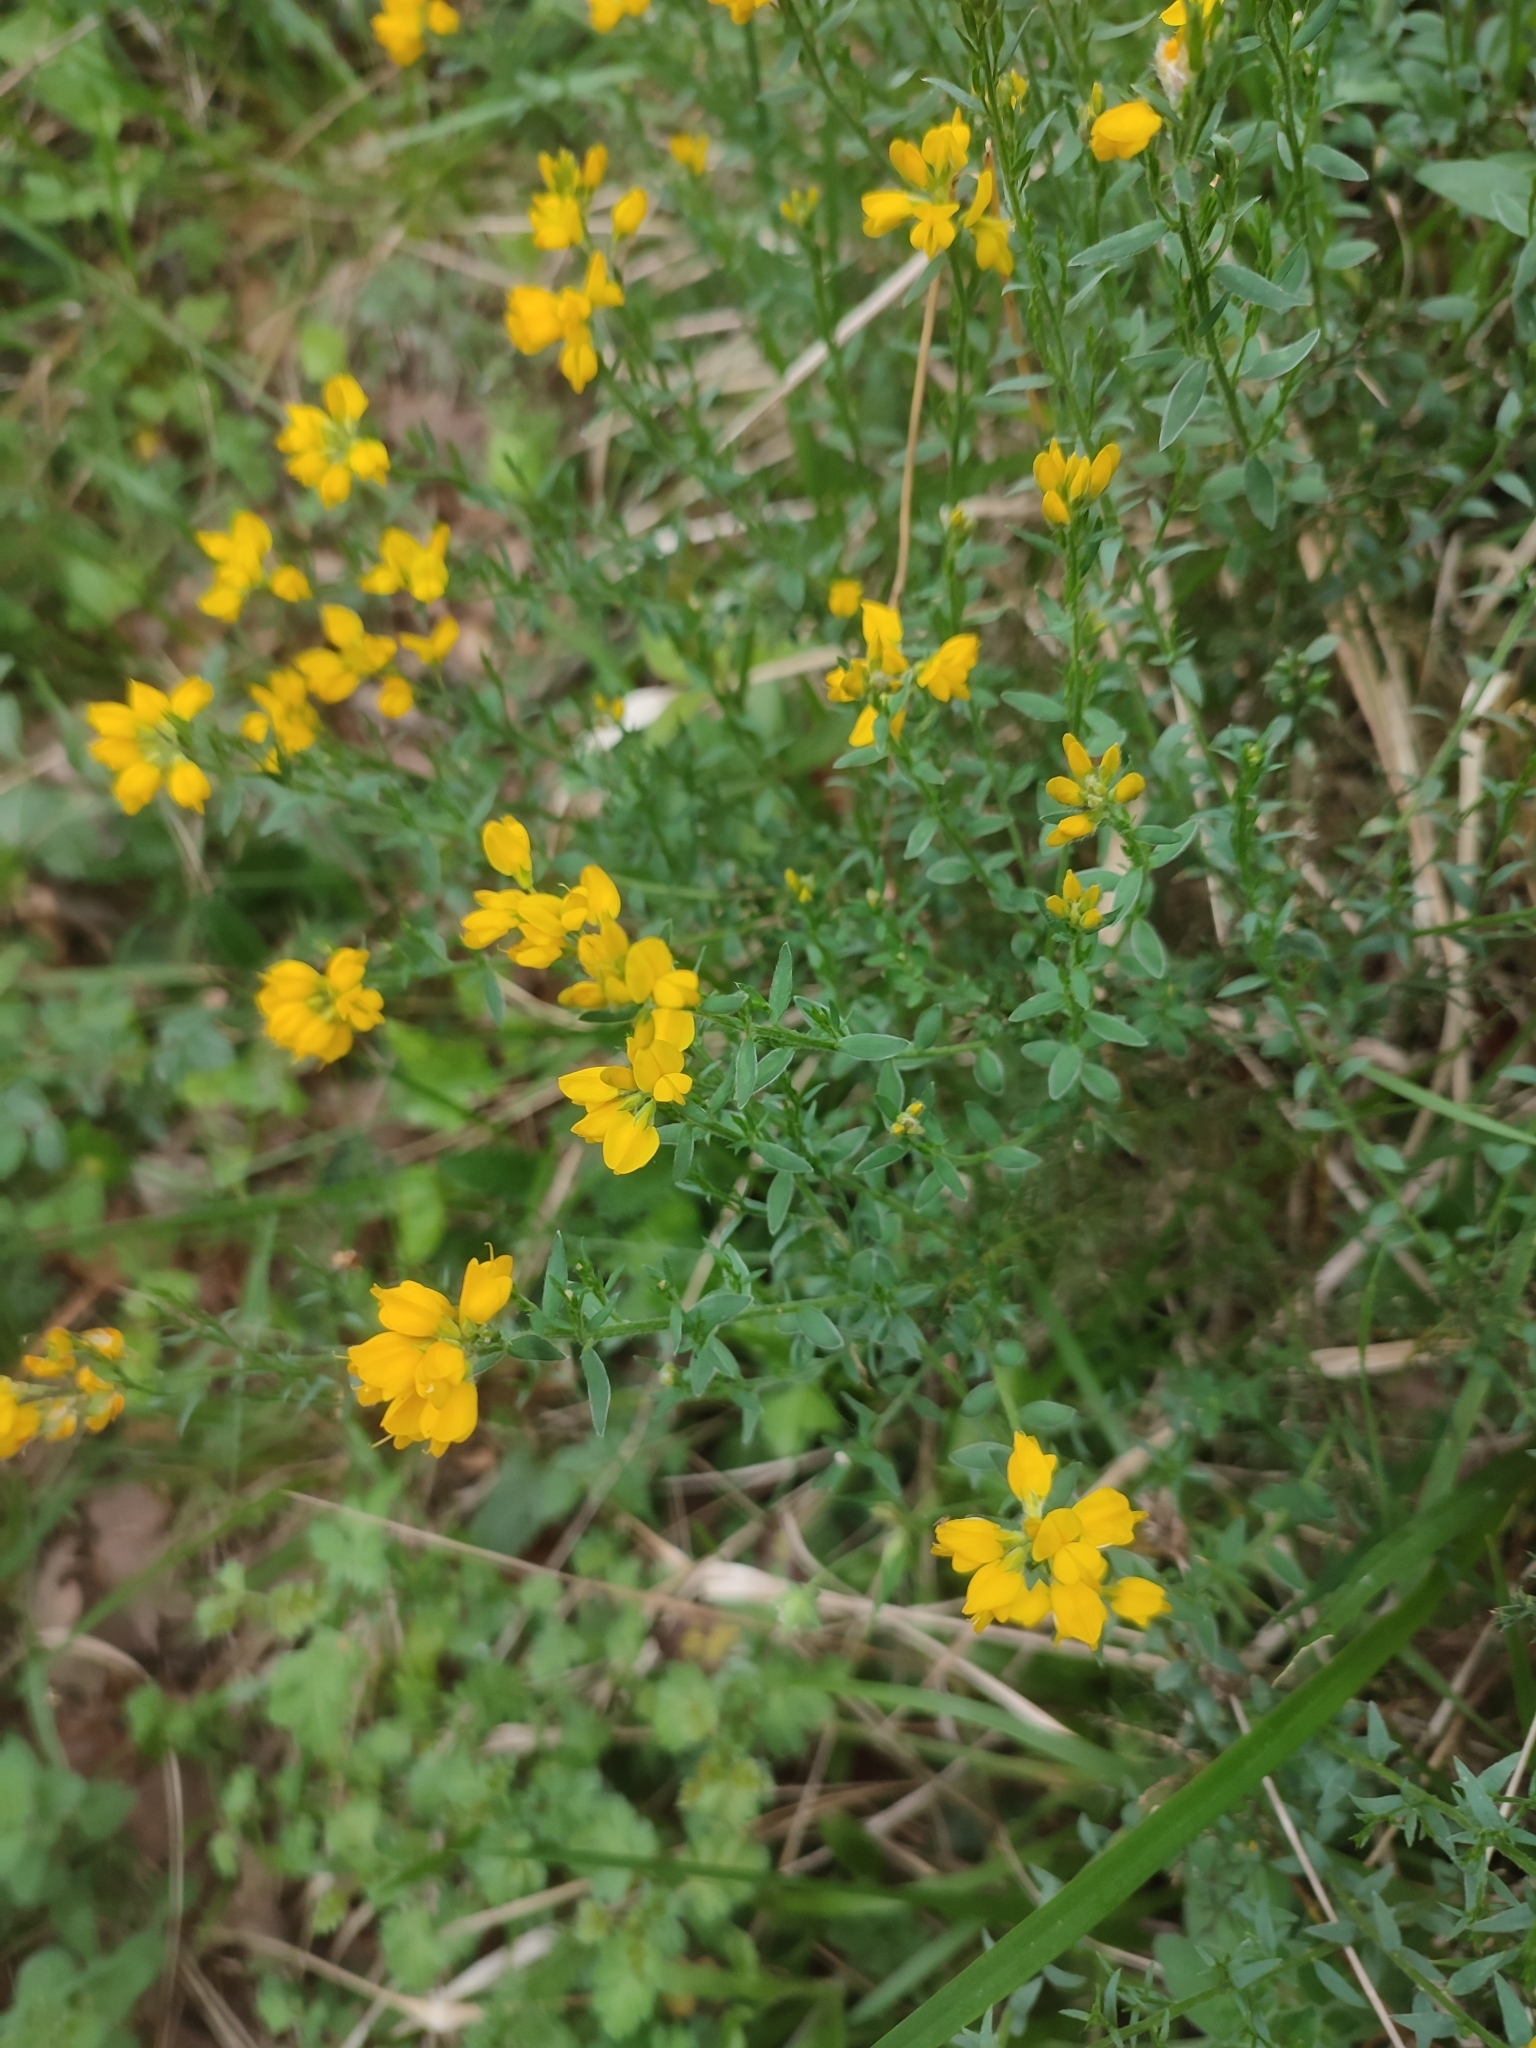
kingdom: Plantae
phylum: Tracheophyta
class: Magnoliopsida
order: Fabales
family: Fabaceae
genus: Genista
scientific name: Genista hispanica
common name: Spanish gorse
